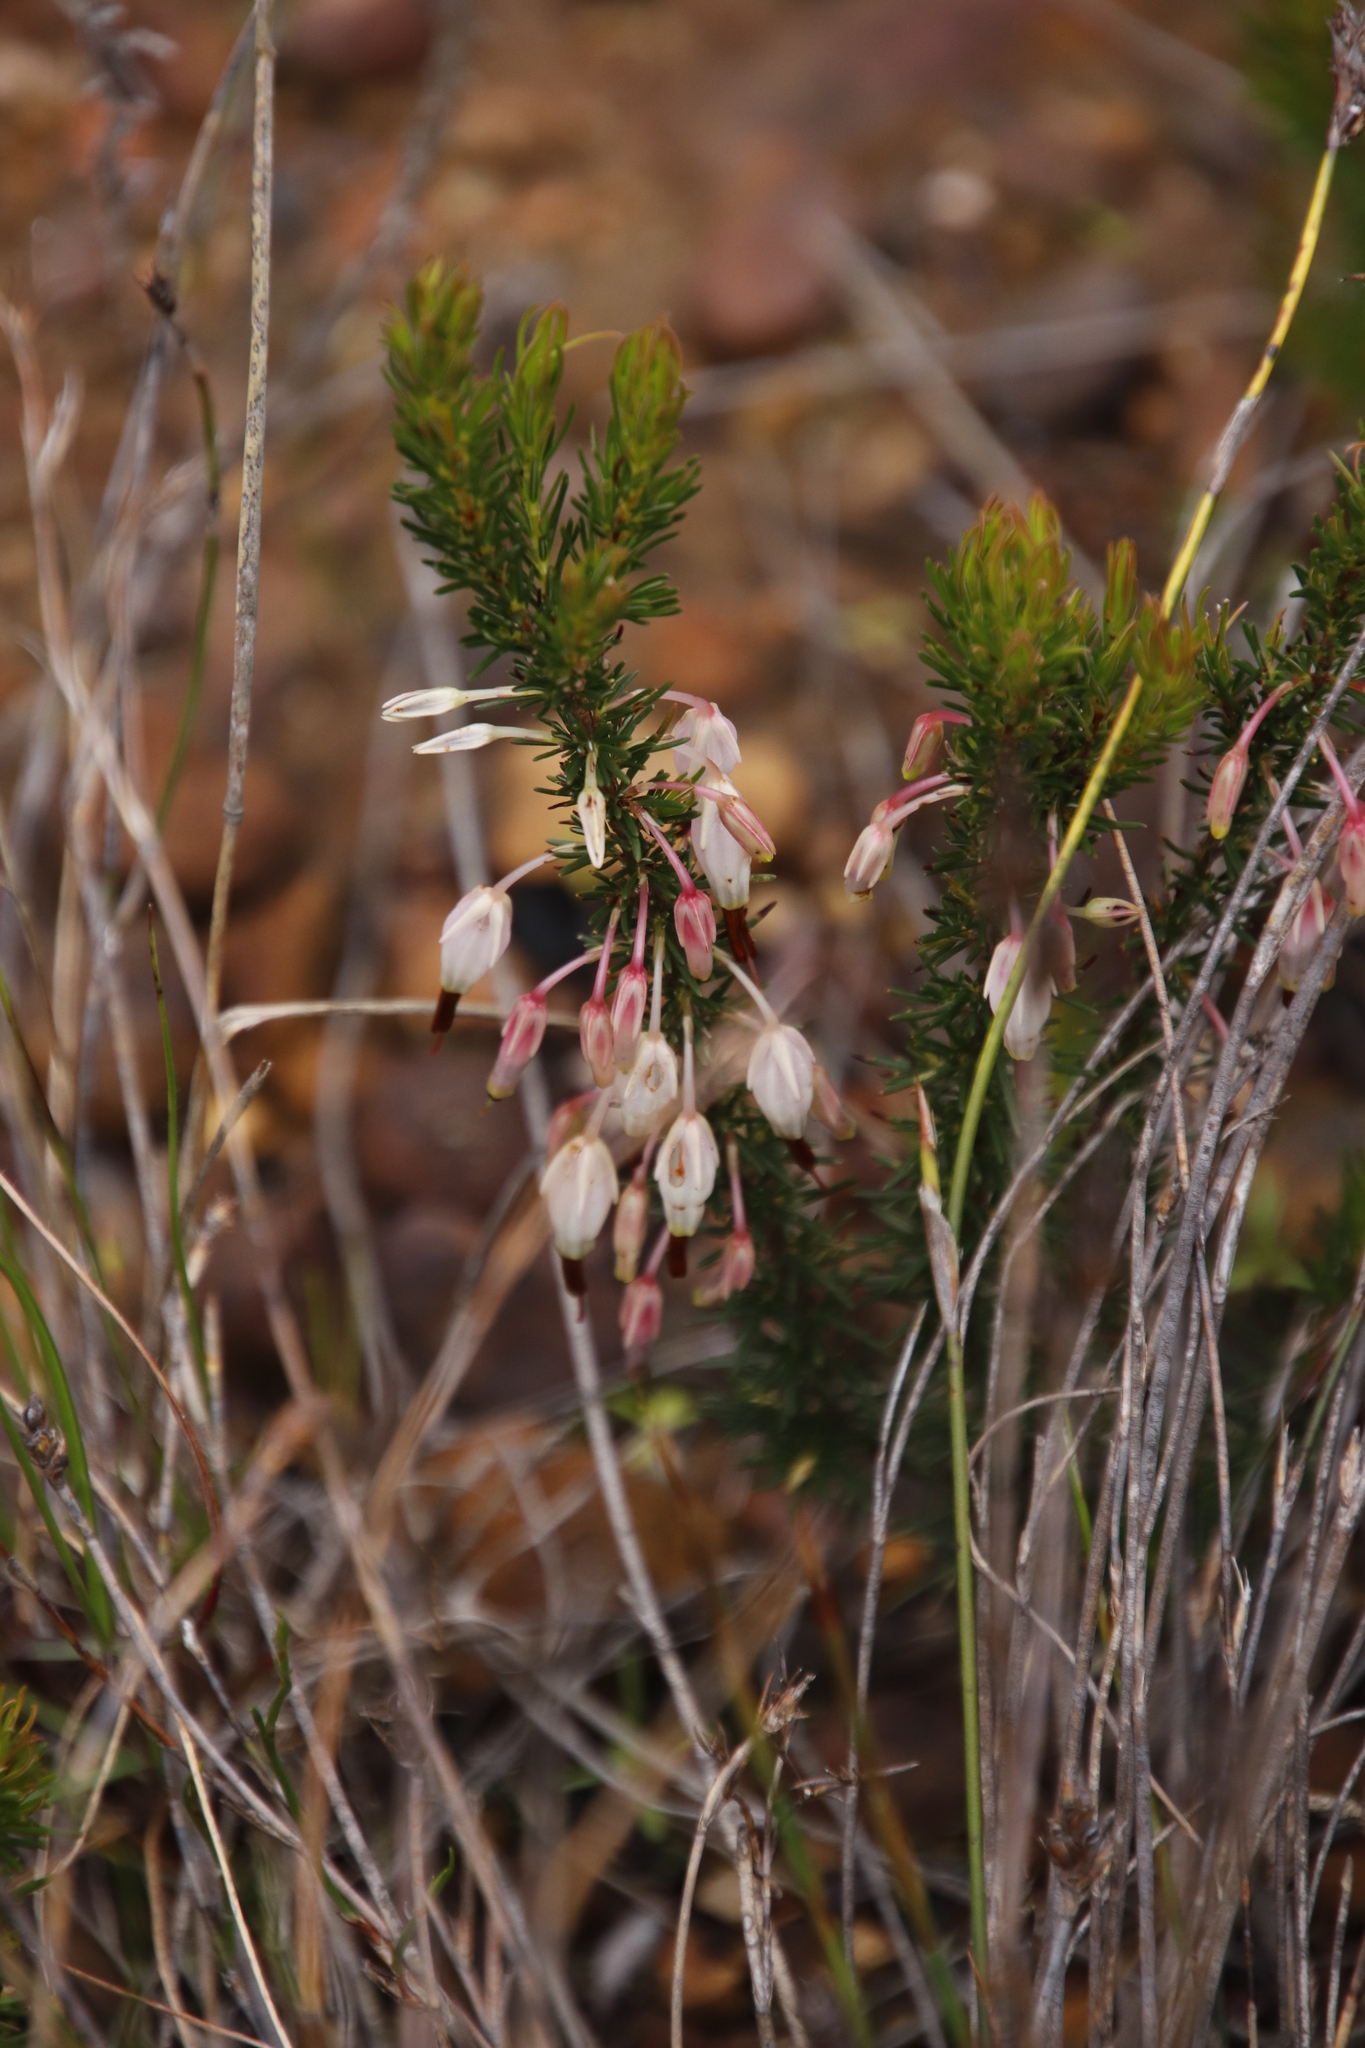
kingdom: Plantae
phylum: Tracheophyta
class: Magnoliopsida
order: Ericales
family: Ericaceae
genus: Erica
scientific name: Erica plukenetii
